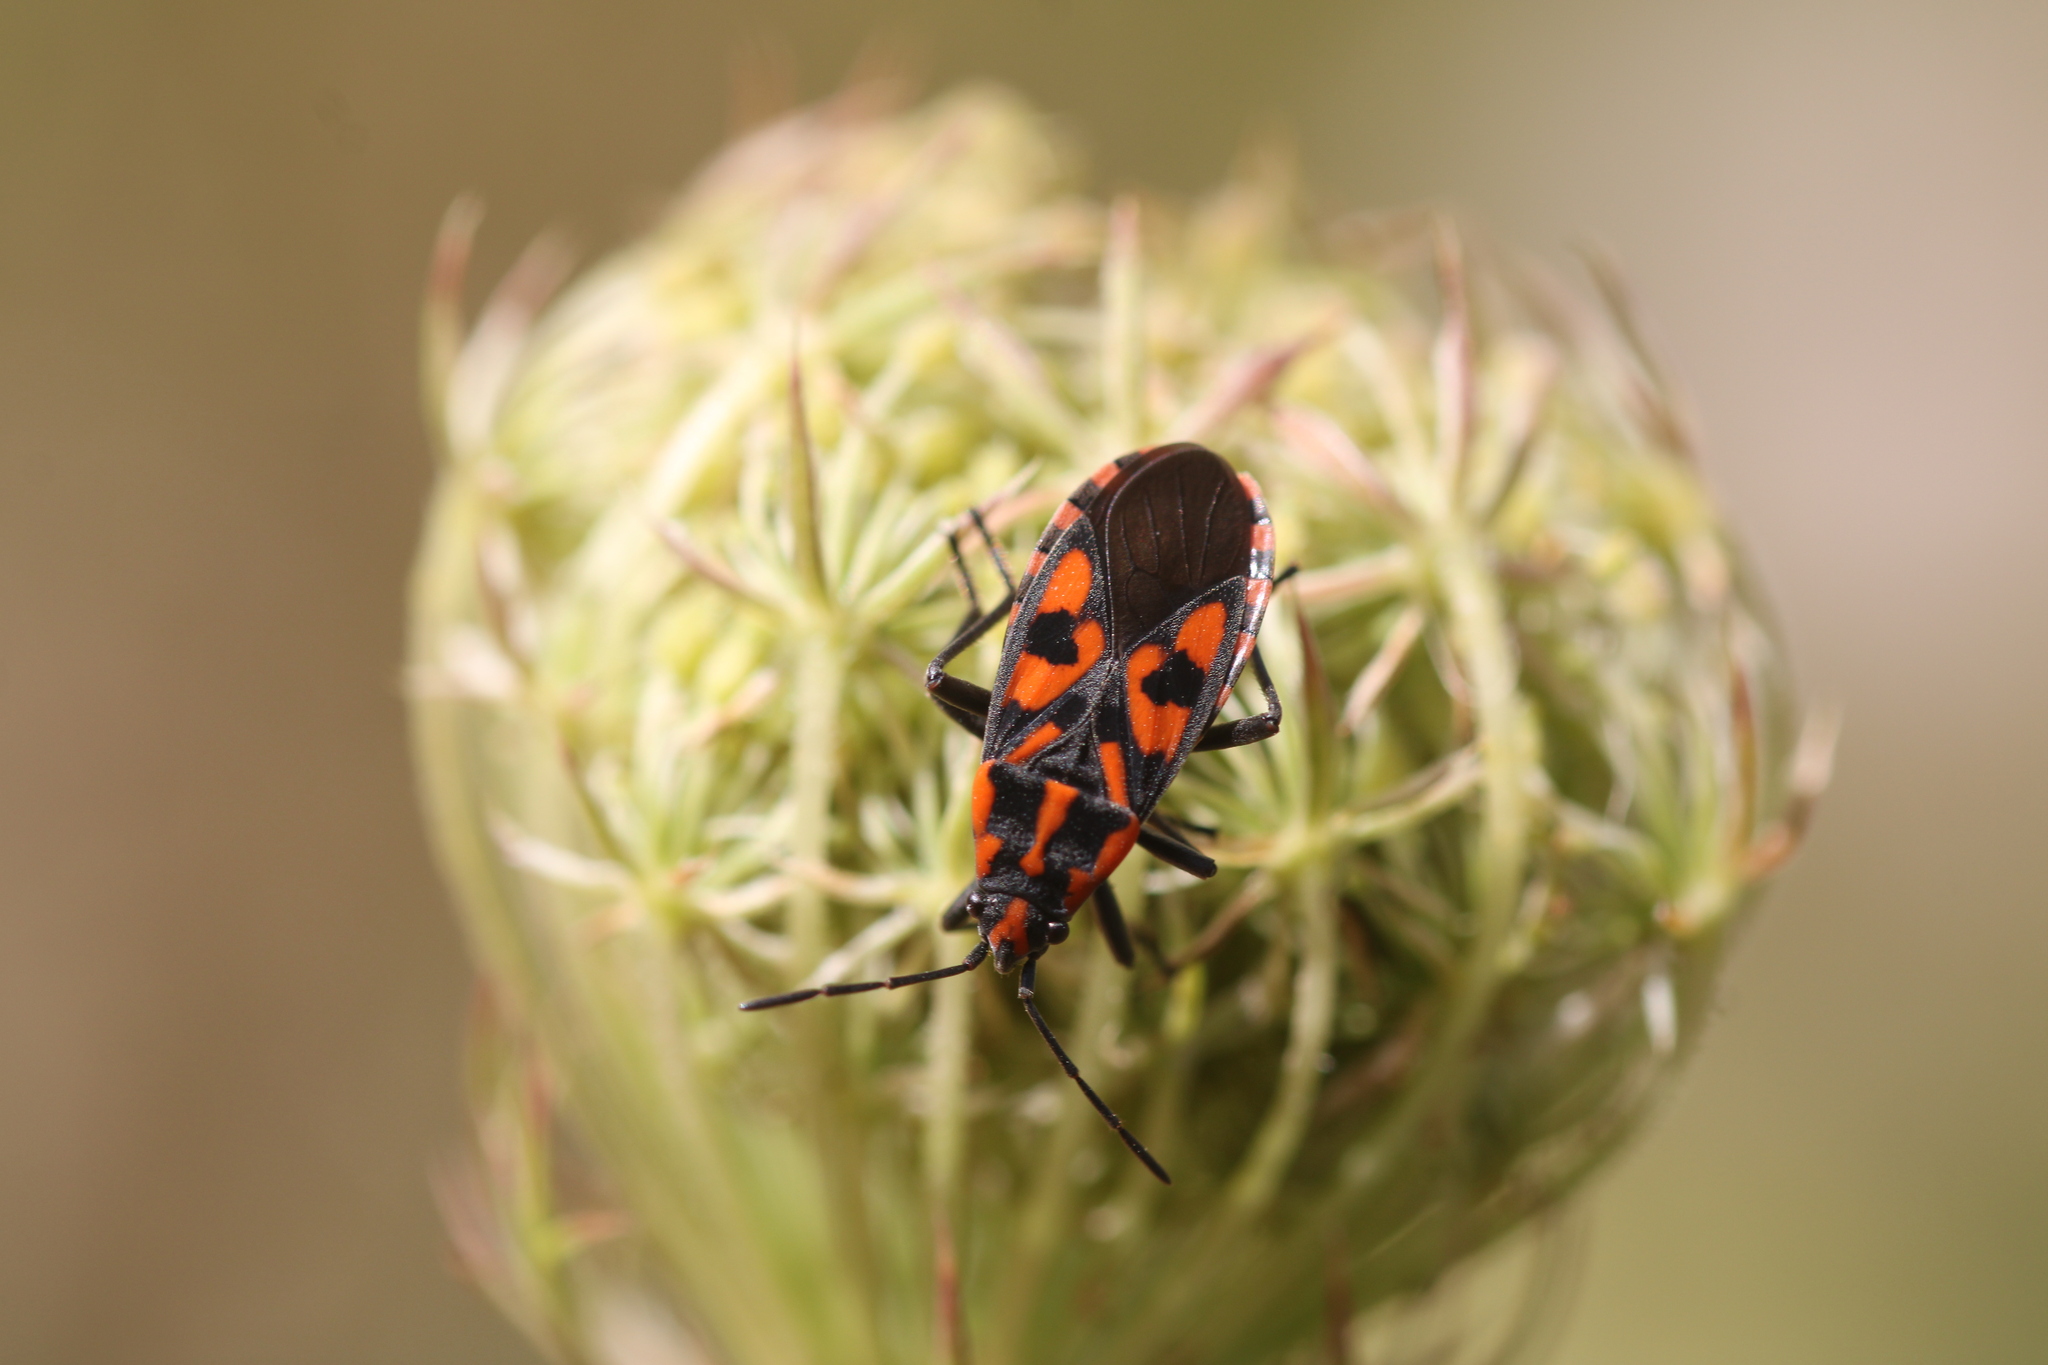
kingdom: Animalia
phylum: Arthropoda
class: Insecta
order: Hemiptera
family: Lygaeidae
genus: Spilostethus
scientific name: Spilostethus saxatilis
